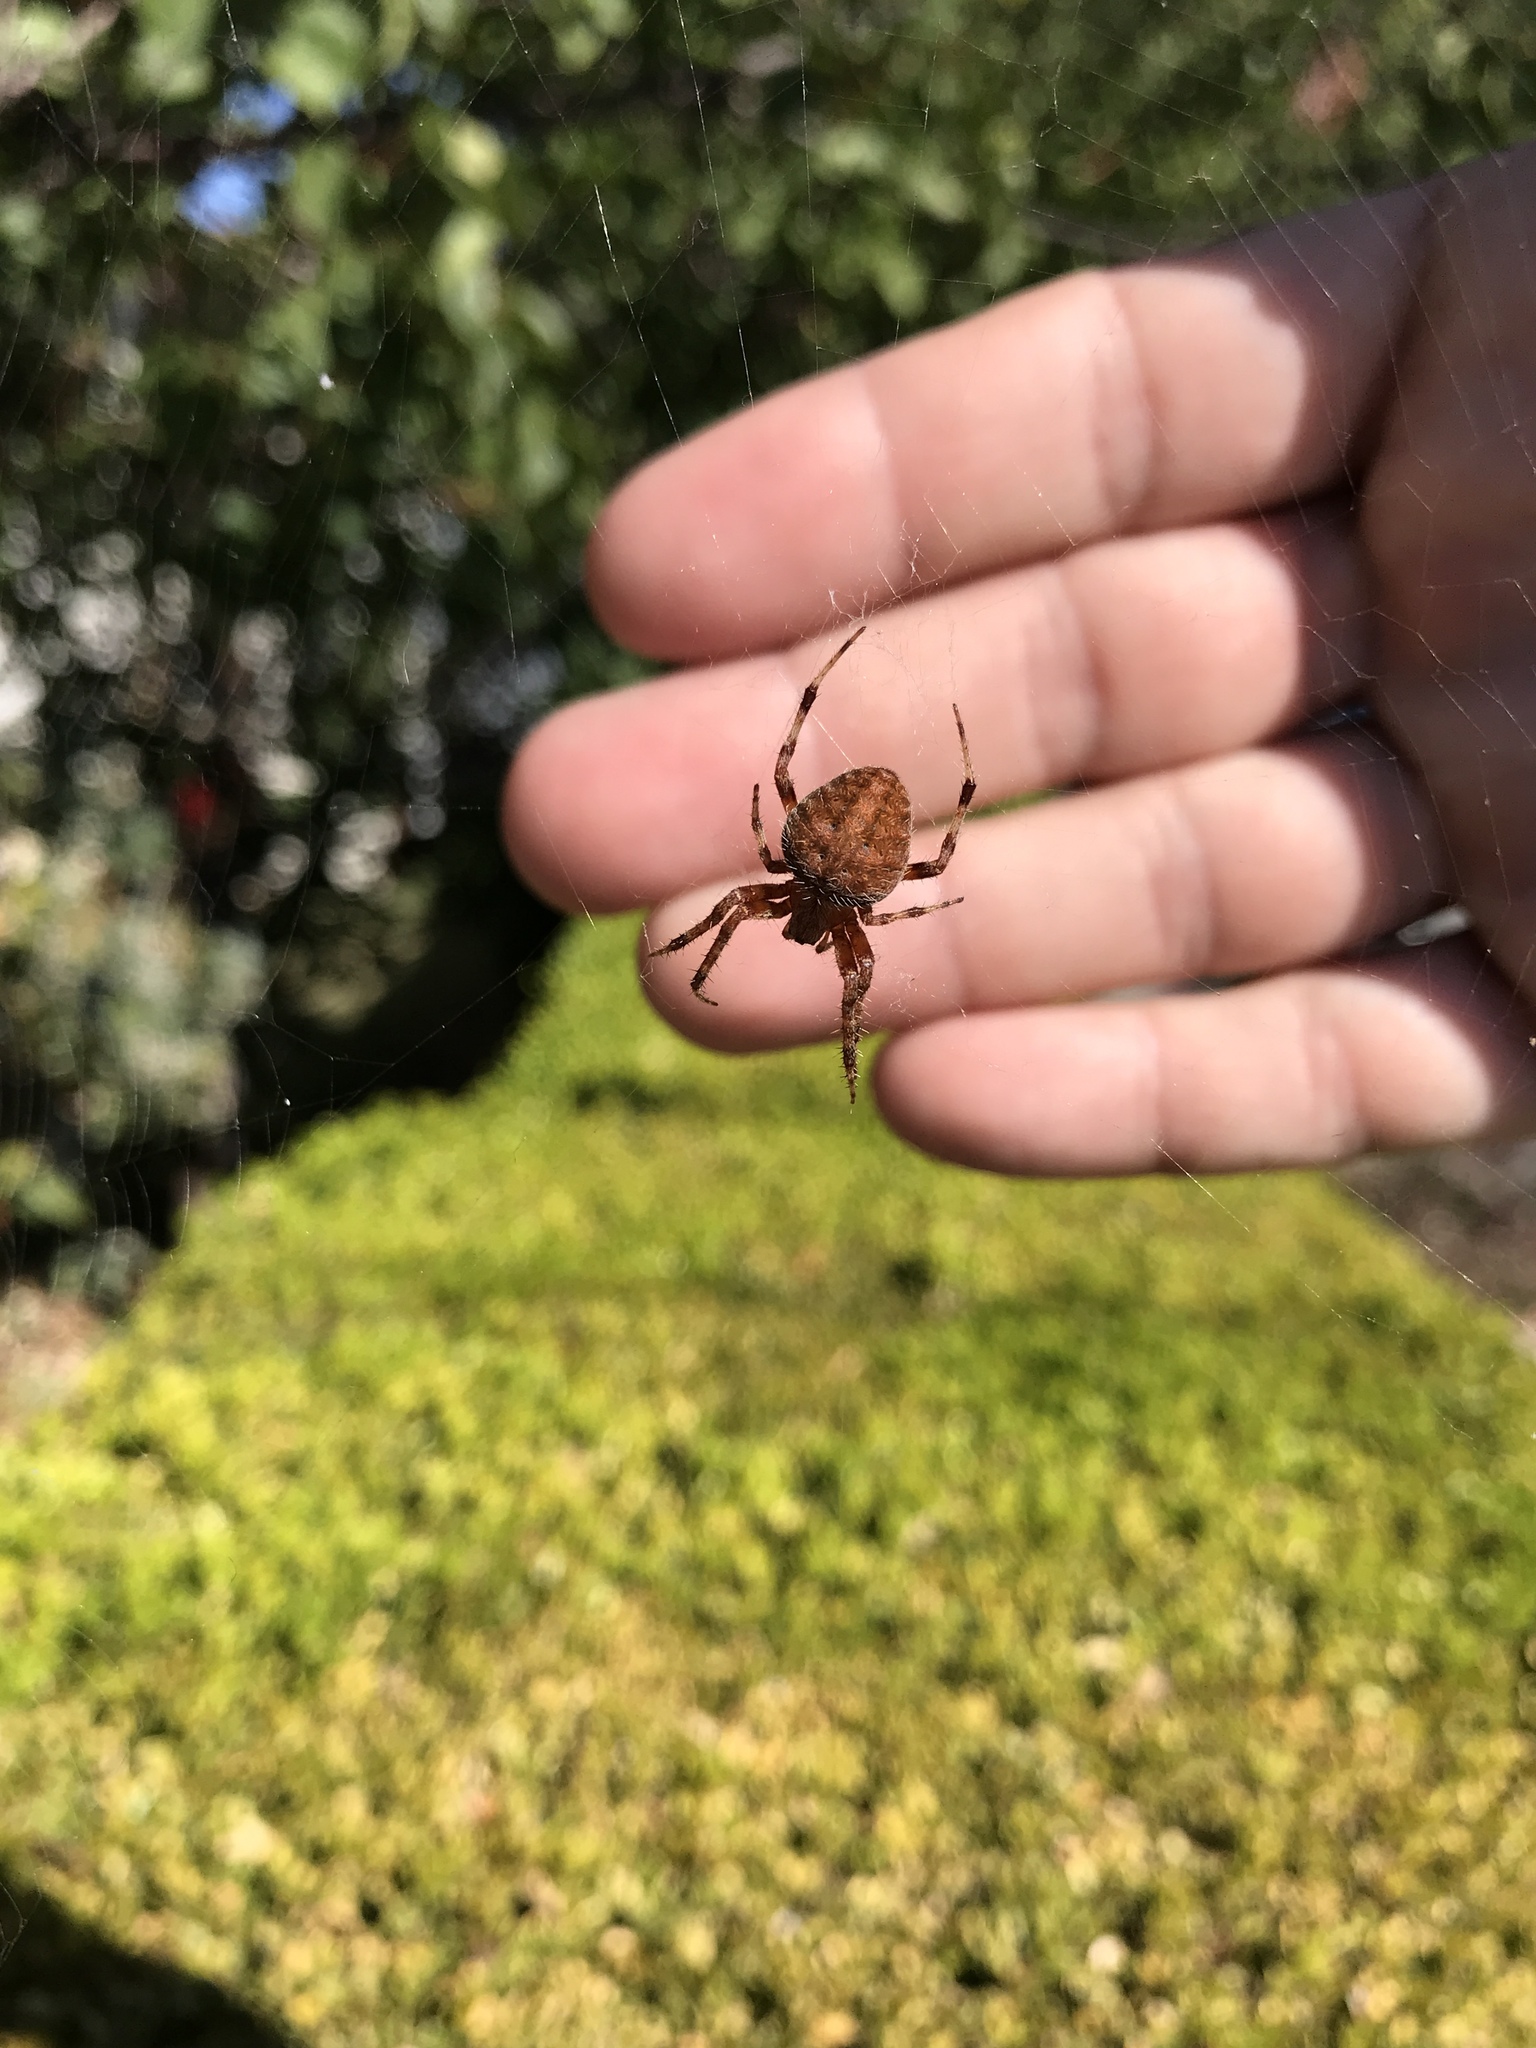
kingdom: Animalia
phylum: Arthropoda
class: Arachnida
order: Araneae
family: Araneidae
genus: Neoscona
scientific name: Neoscona crucifera
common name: Spotted orbweaver
